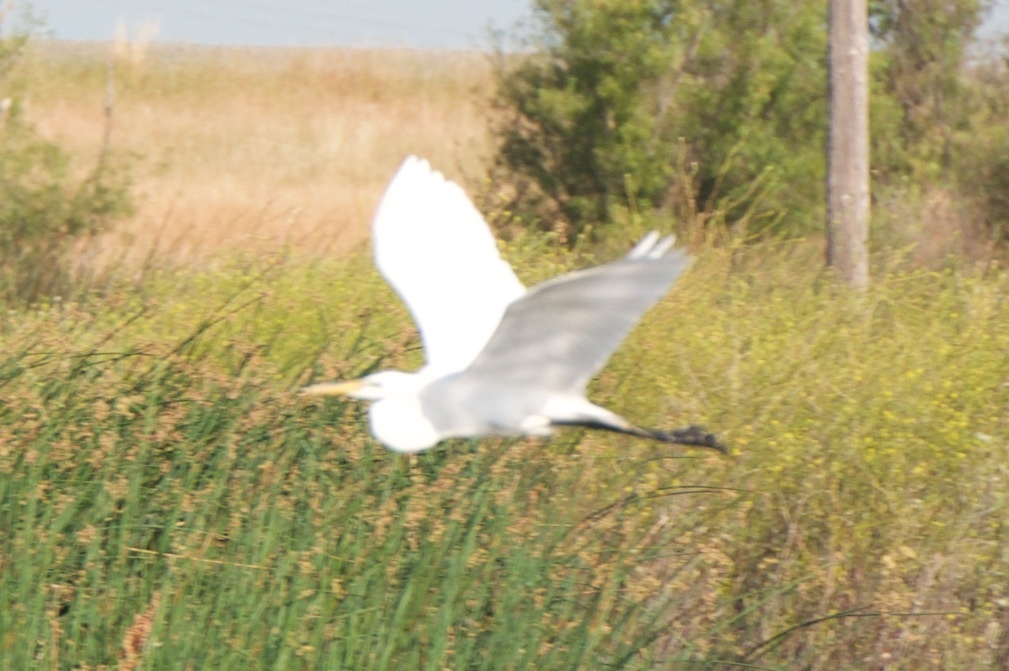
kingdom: Animalia
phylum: Chordata
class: Aves
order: Pelecaniformes
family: Ardeidae
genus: Ardea
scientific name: Ardea alba
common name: Great egret
